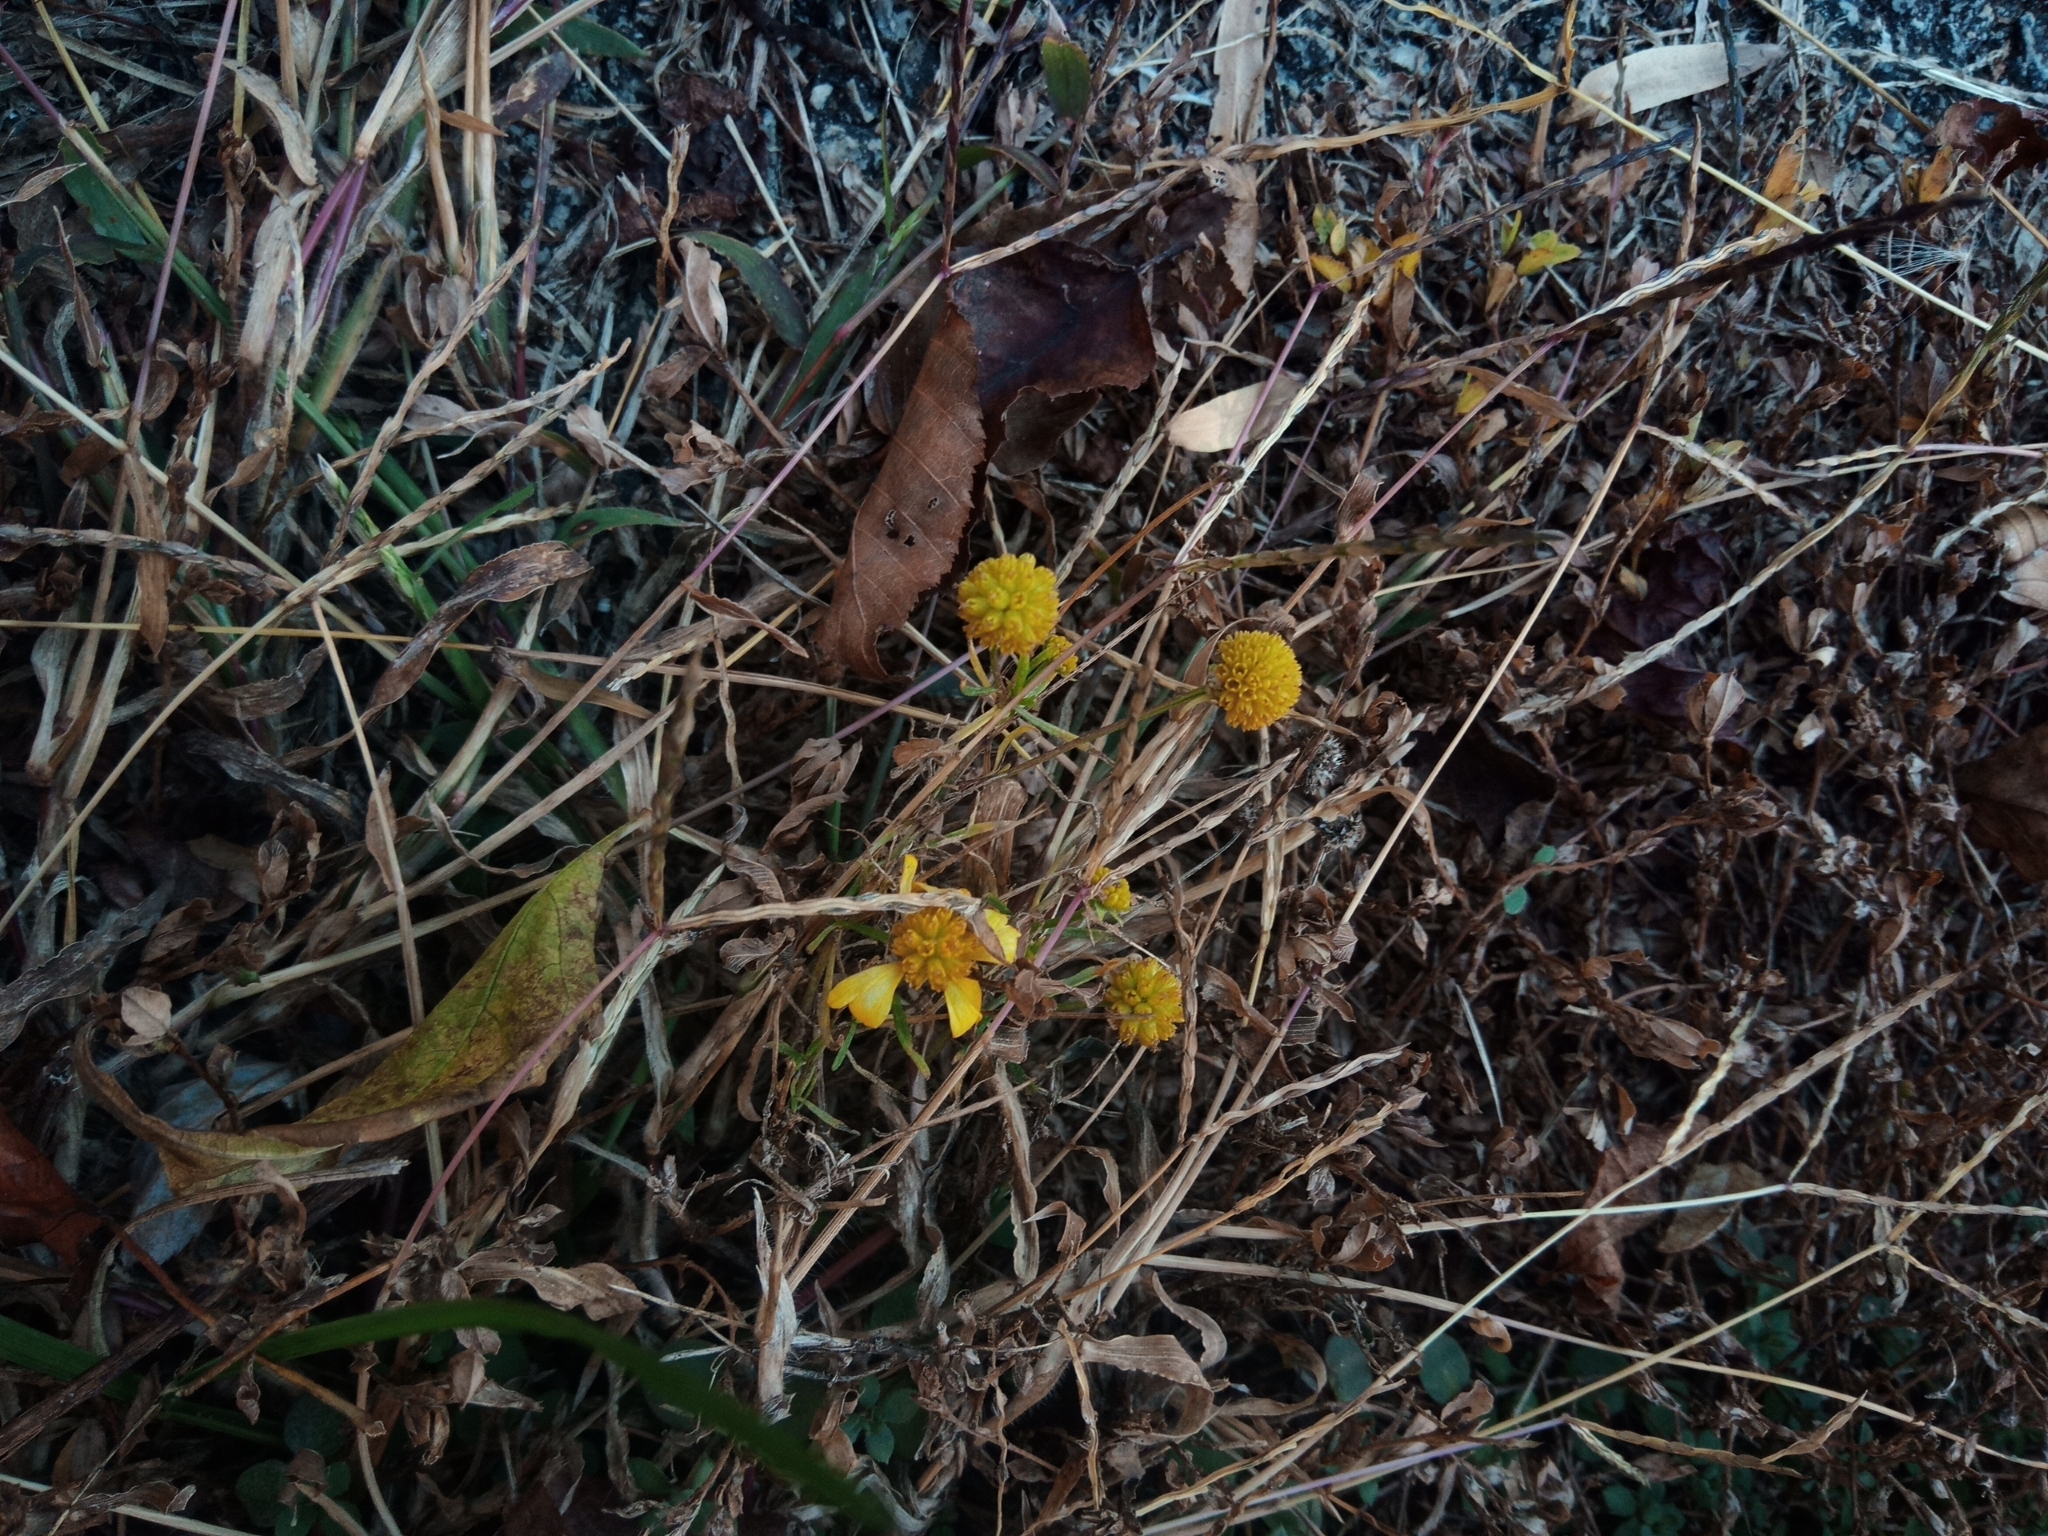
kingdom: Plantae
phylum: Tracheophyta
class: Magnoliopsida
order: Asterales
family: Asteraceae
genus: Helenium
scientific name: Helenium amarum
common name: Bitter sneezeweed
